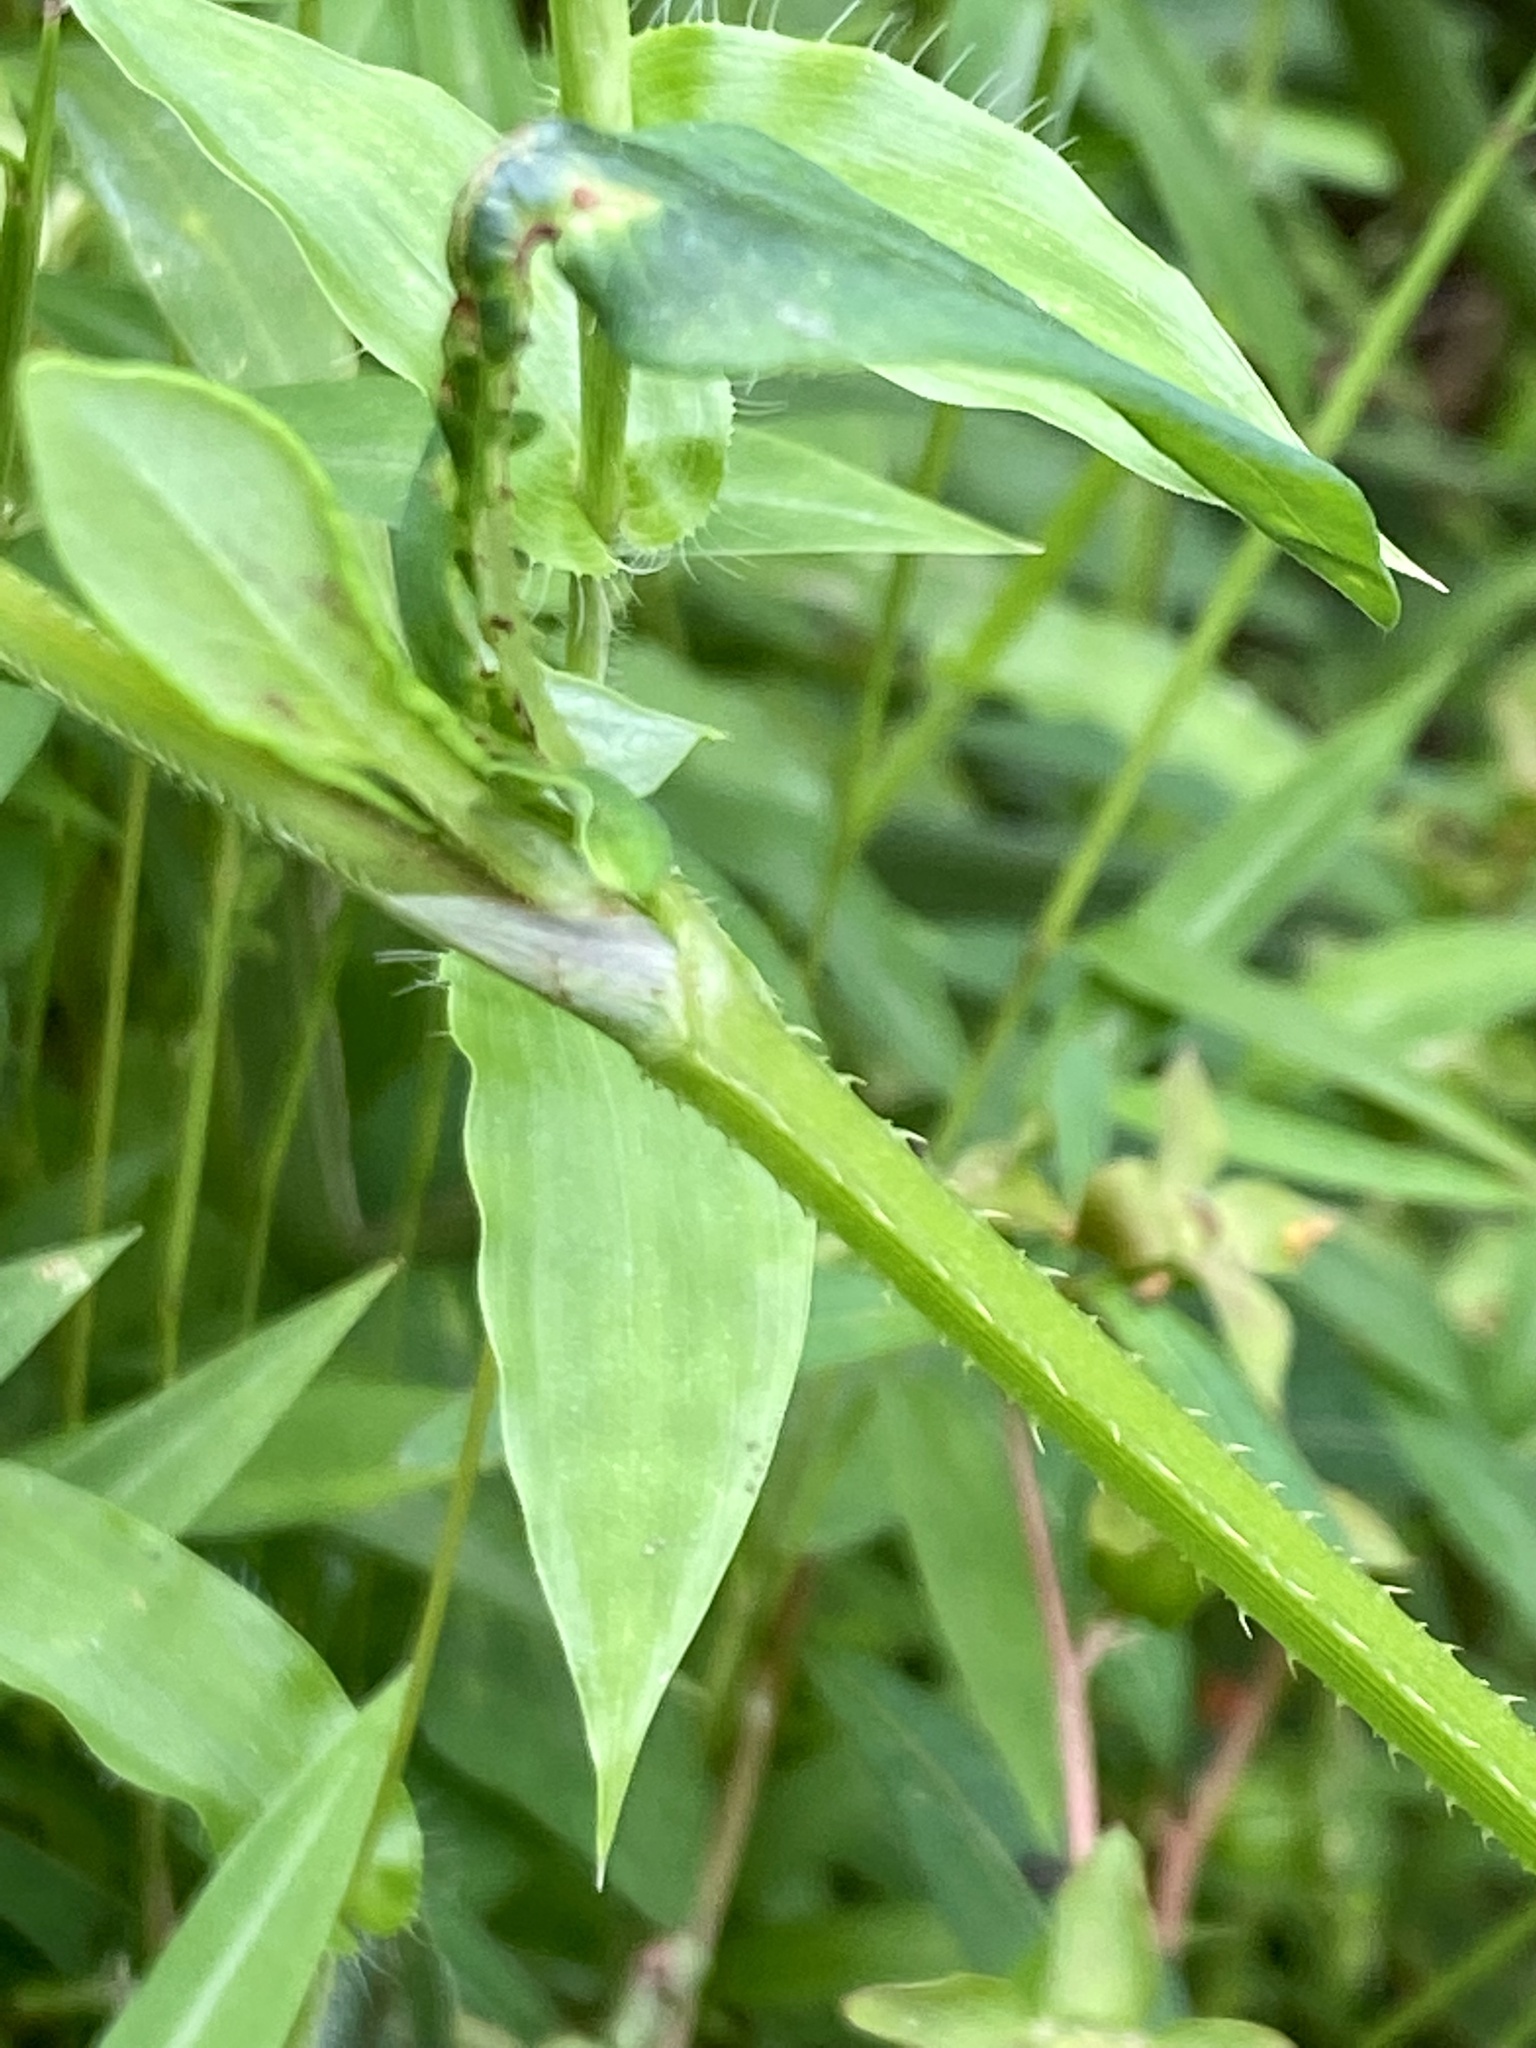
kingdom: Plantae
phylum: Tracheophyta
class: Magnoliopsida
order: Caryophyllales
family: Polygonaceae
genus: Persicaria
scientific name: Persicaria sagittata
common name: American tearthumb
